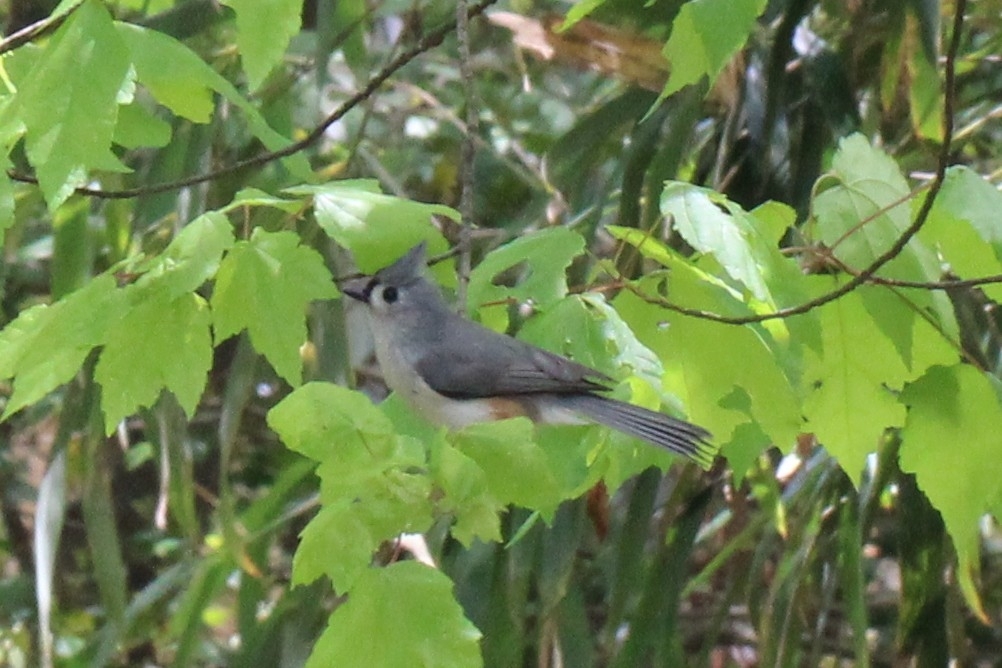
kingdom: Animalia
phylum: Chordata
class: Aves
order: Passeriformes
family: Paridae
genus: Baeolophus
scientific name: Baeolophus bicolor
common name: Tufted titmouse
